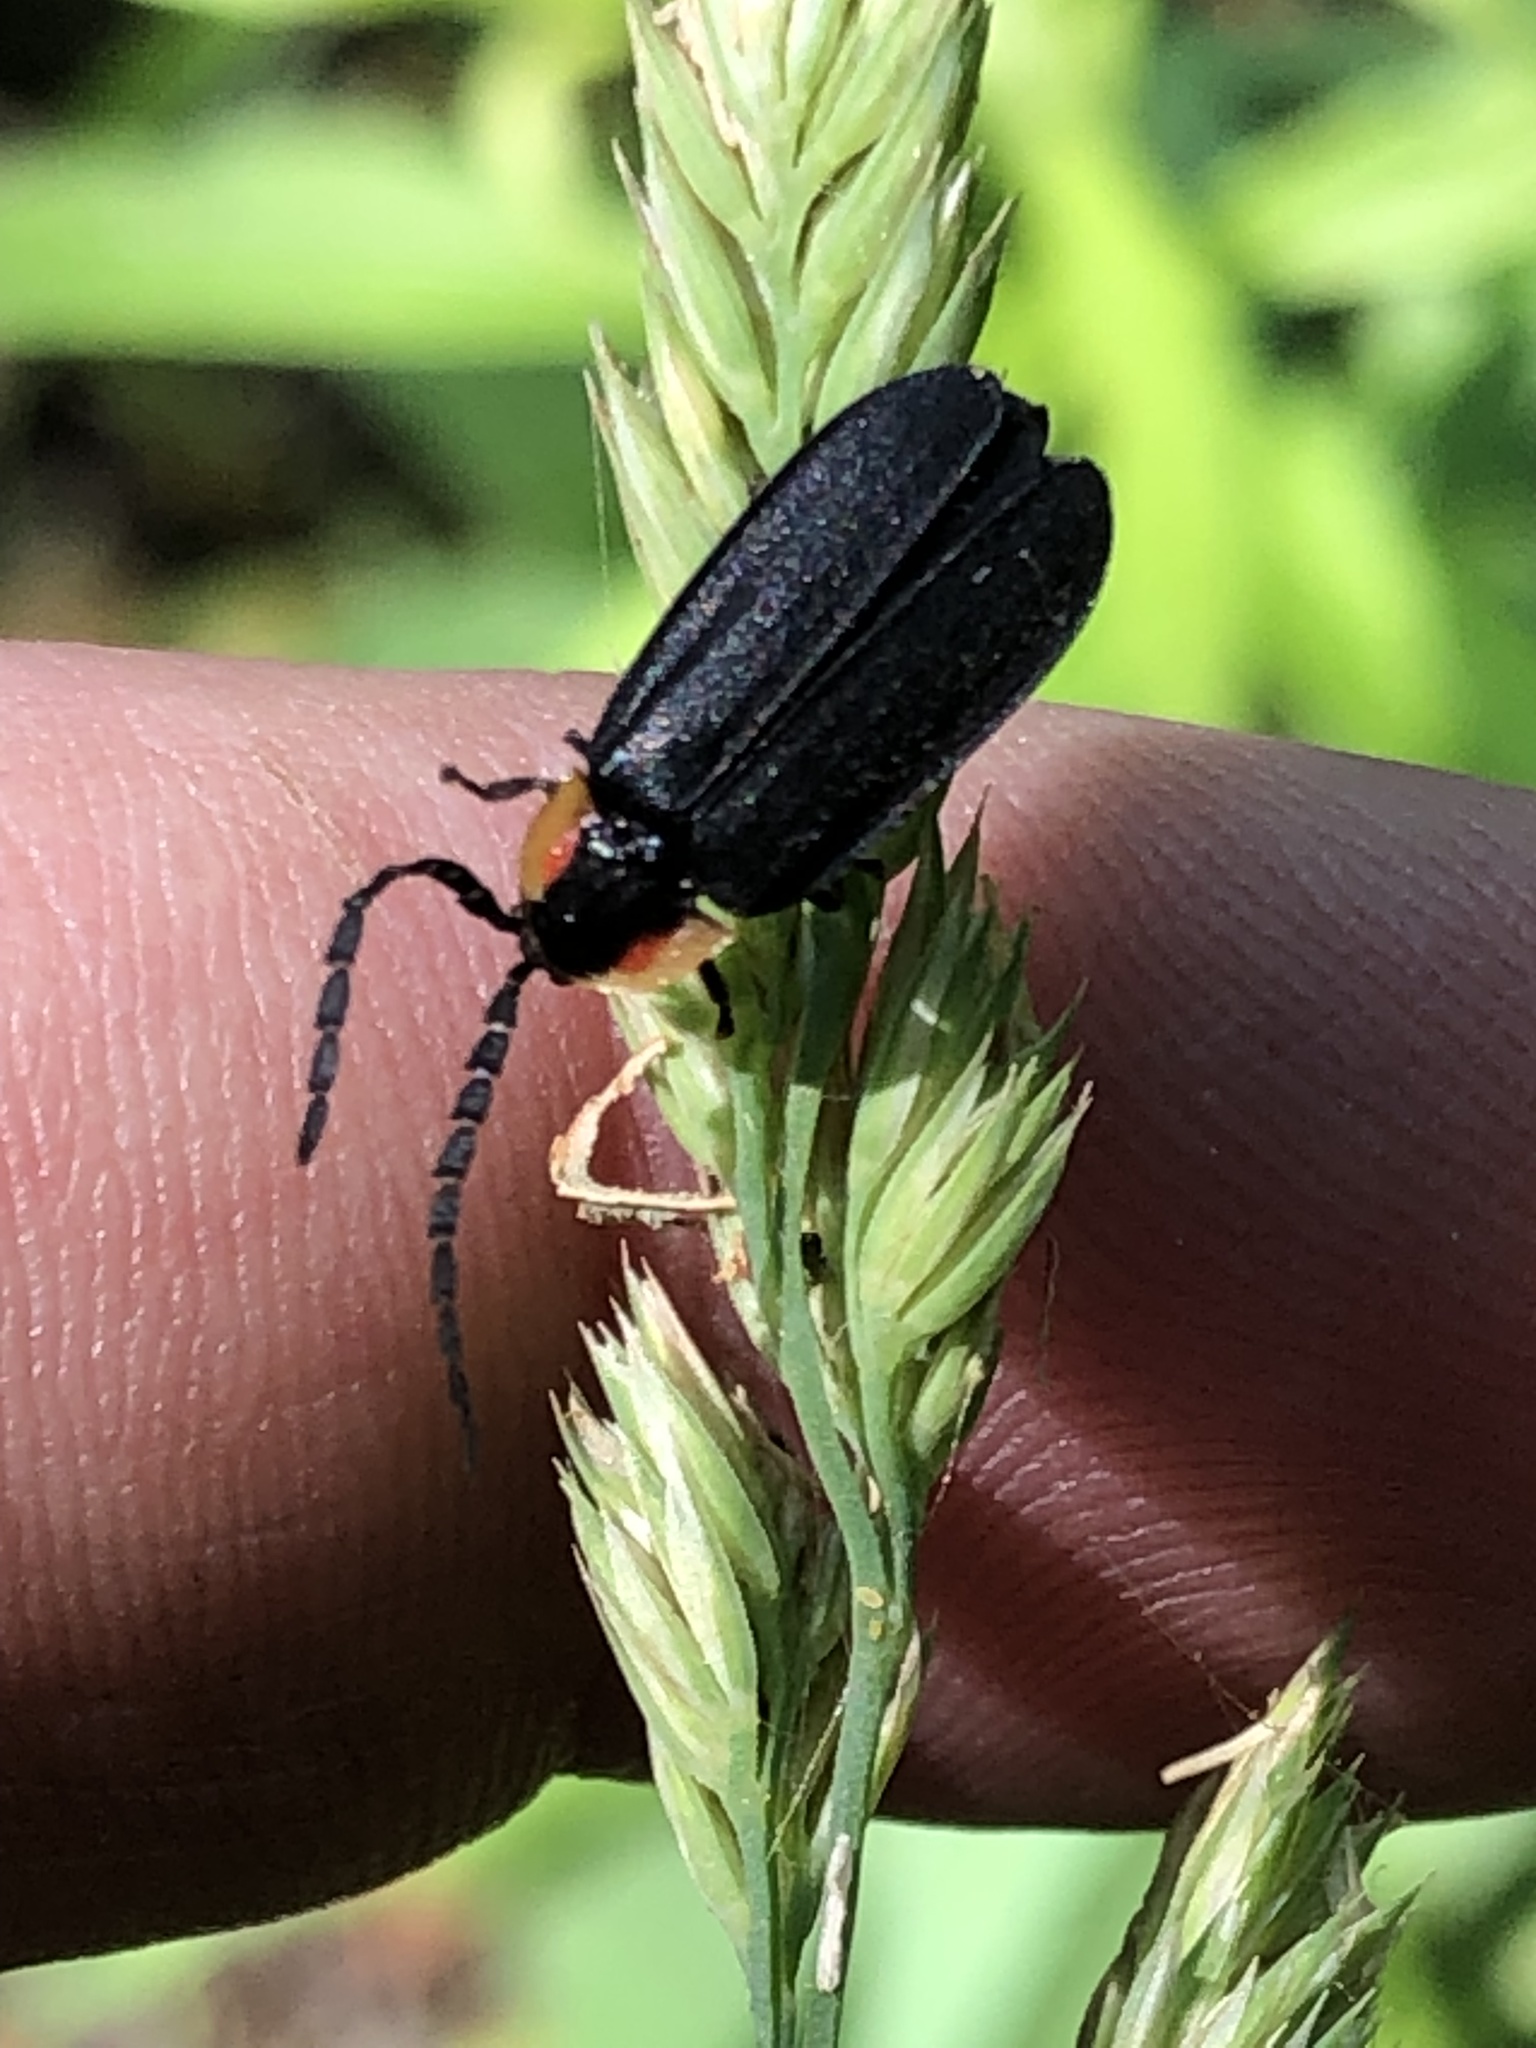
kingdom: Animalia
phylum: Arthropoda
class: Insecta
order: Coleoptera
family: Lampyridae
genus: Lucidota
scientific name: Lucidota atra
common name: Black firefly
